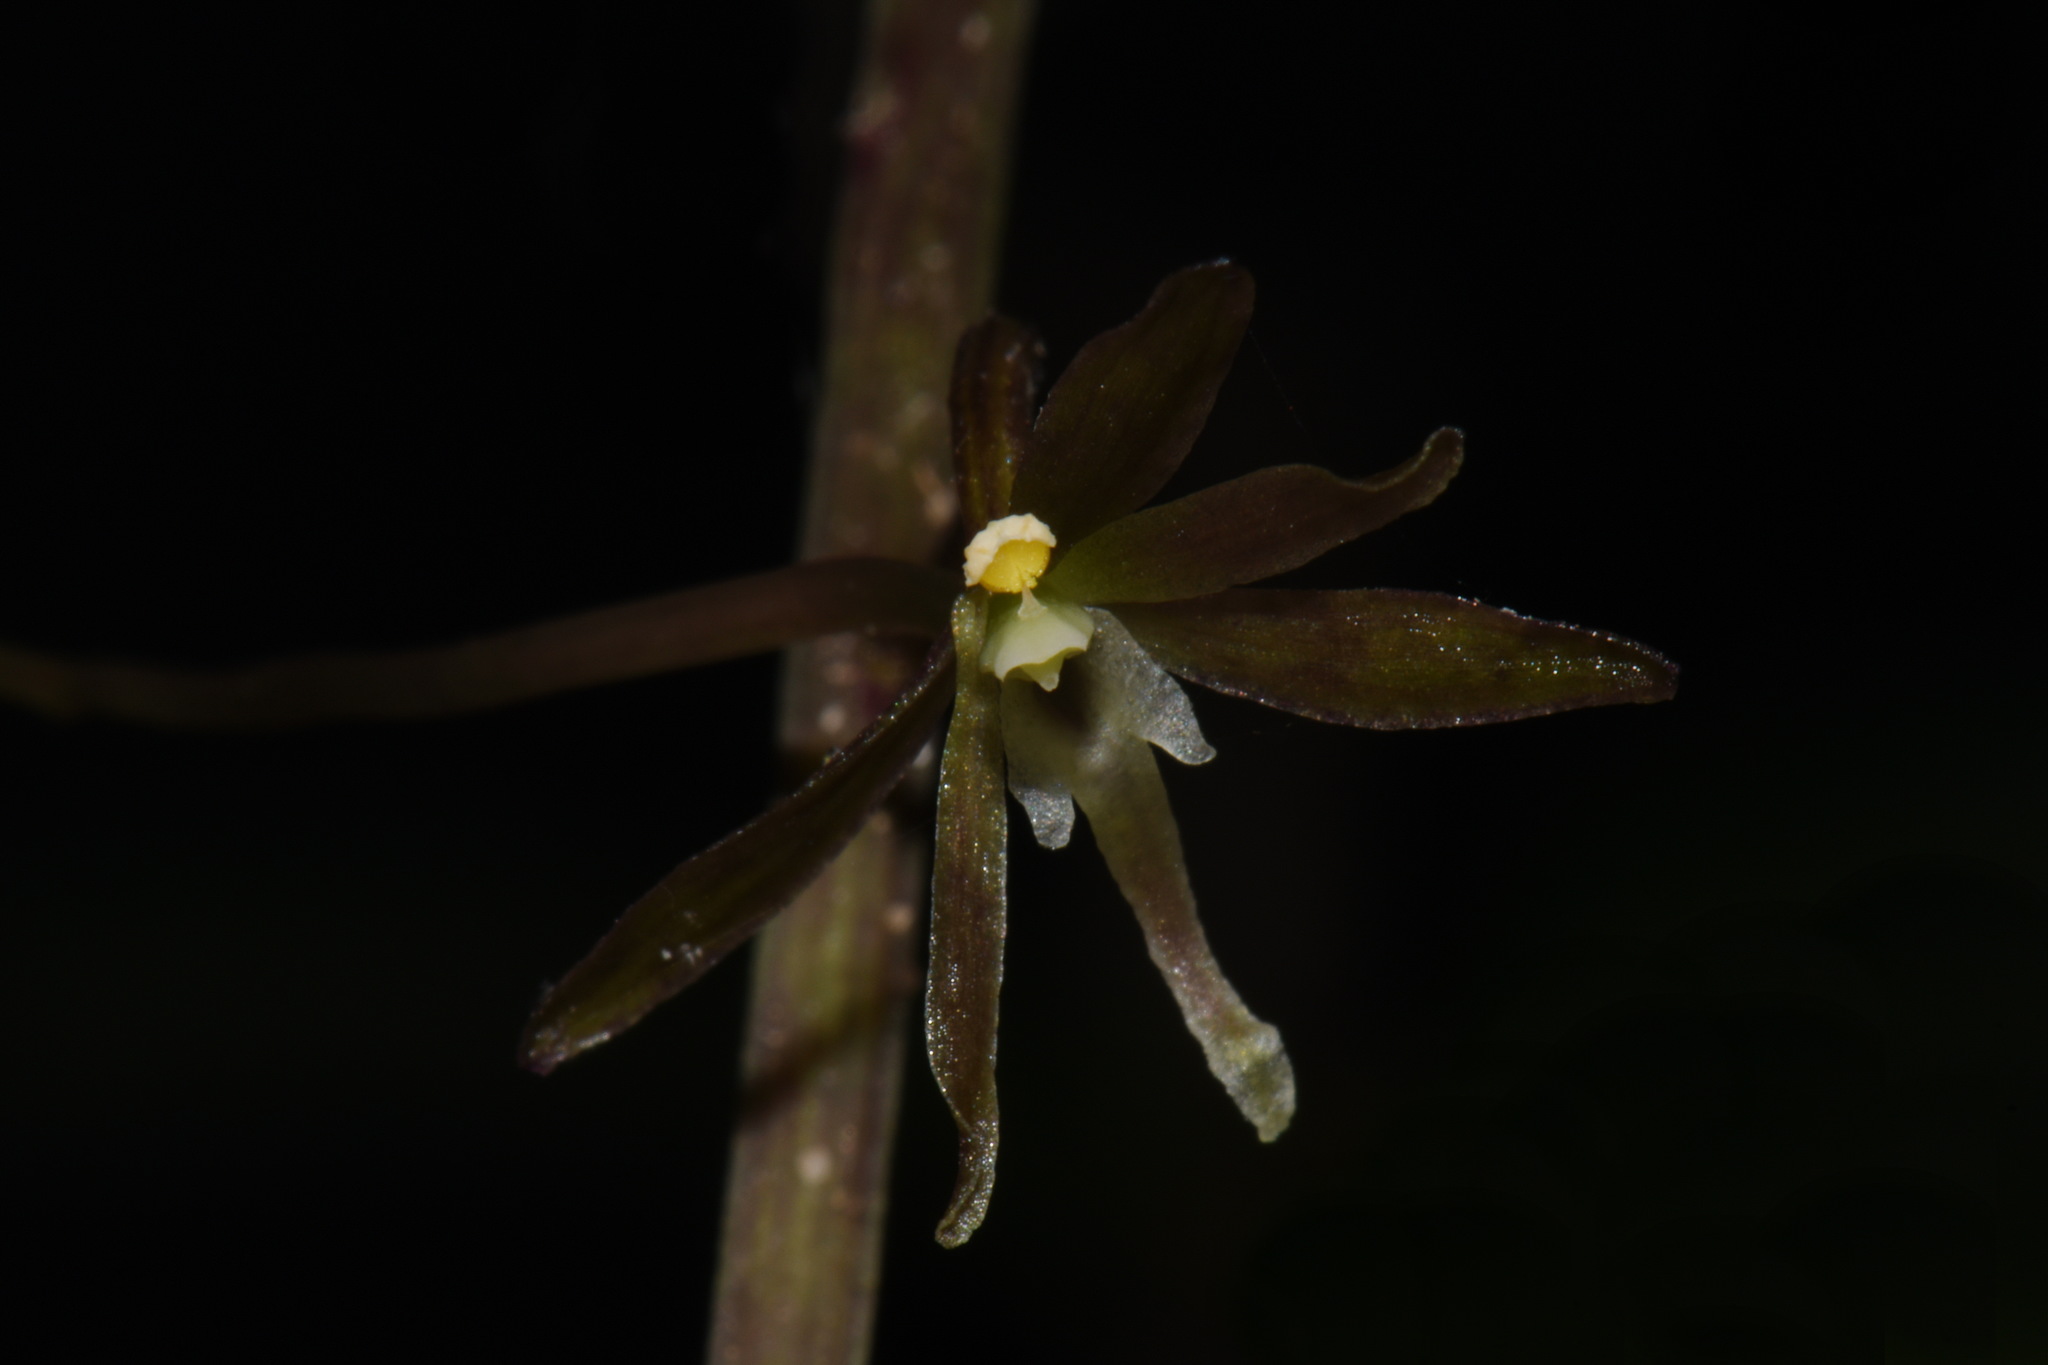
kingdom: Plantae
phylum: Tracheophyta
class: Liliopsida
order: Asparagales
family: Orchidaceae
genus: Tipularia
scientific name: Tipularia discolor
